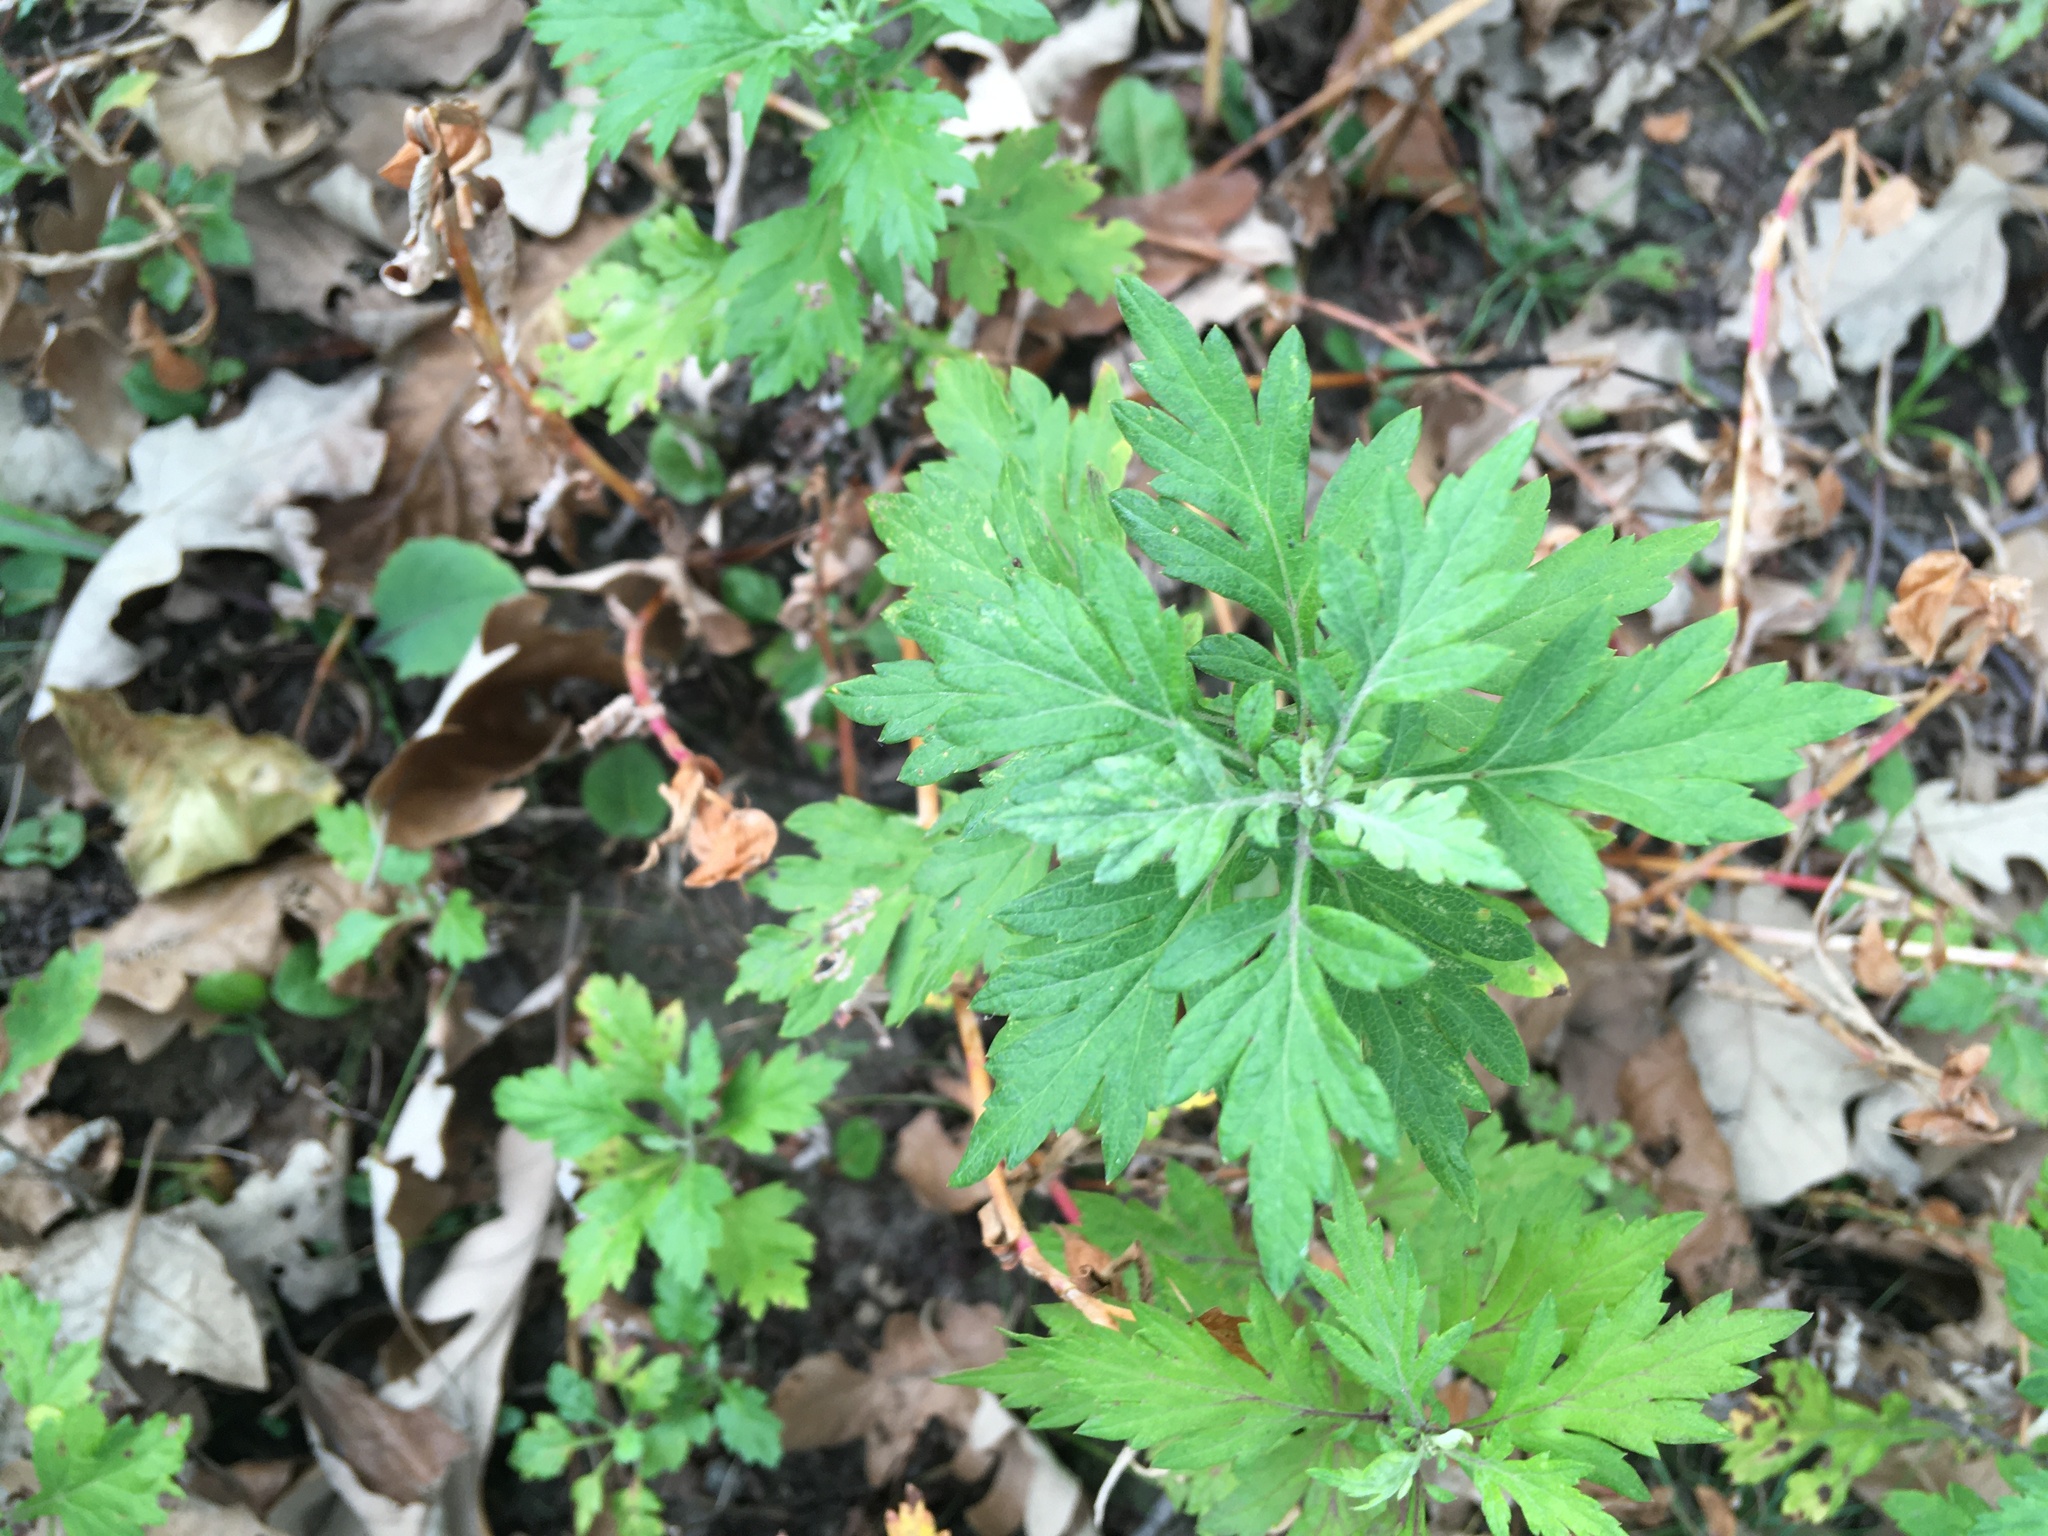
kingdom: Plantae
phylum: Tracheophyta
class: Magnoliopsida
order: Asterales
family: Asteraceae
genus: Artemisia
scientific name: Artemisia vulgaris
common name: Mugwort
